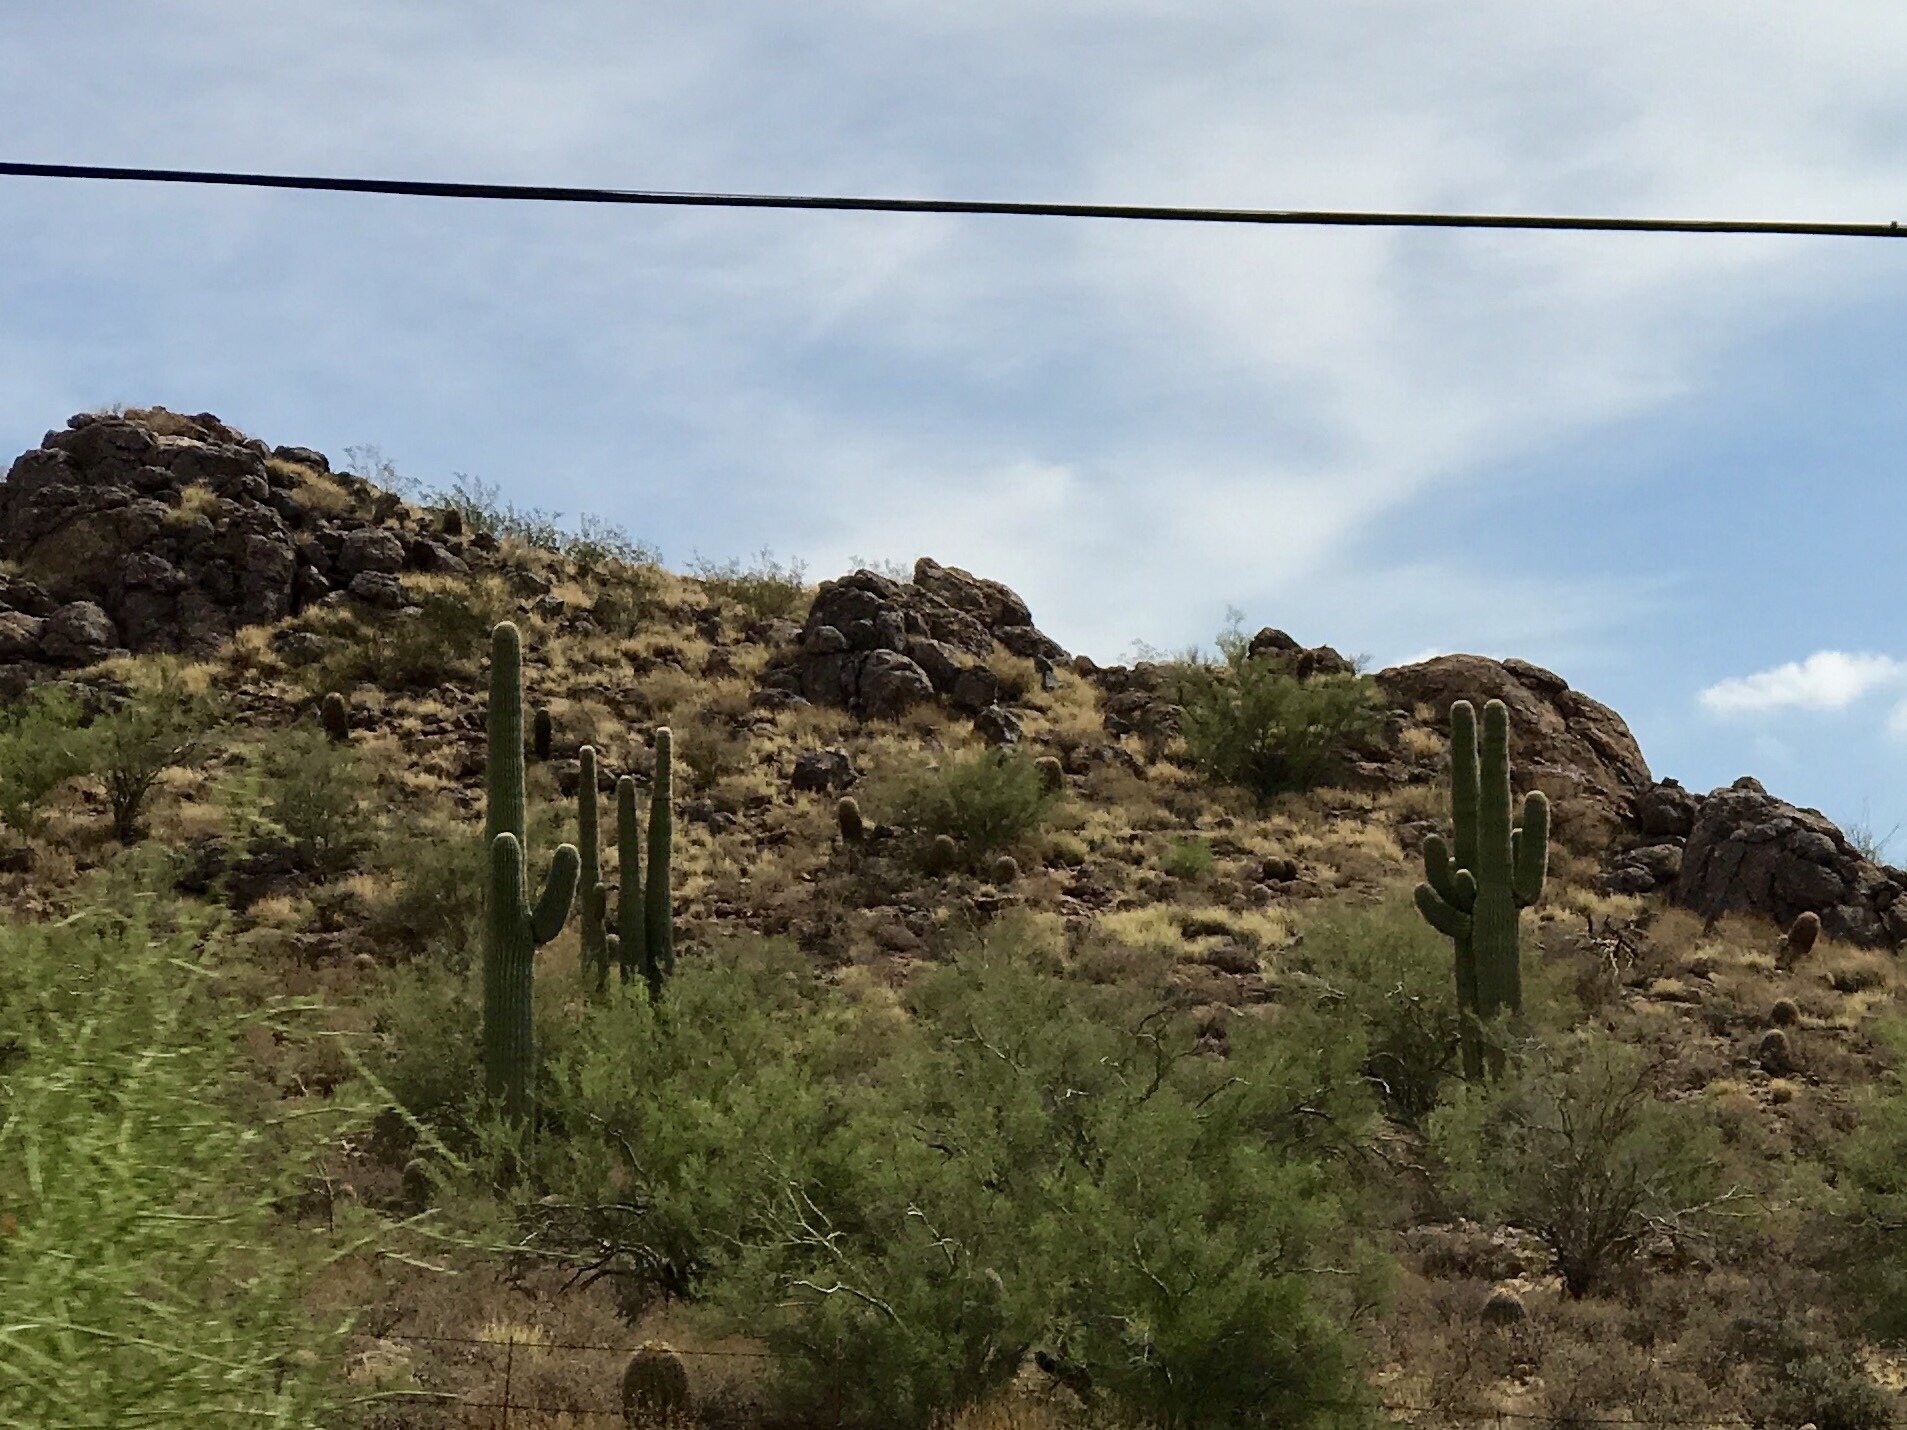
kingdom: Plantae
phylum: Tracheophyta
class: Magnoliopsida
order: Caryophyllales
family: Cactaceae
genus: Carnegiea
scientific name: Carnegiea gigantea
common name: Saguaro
